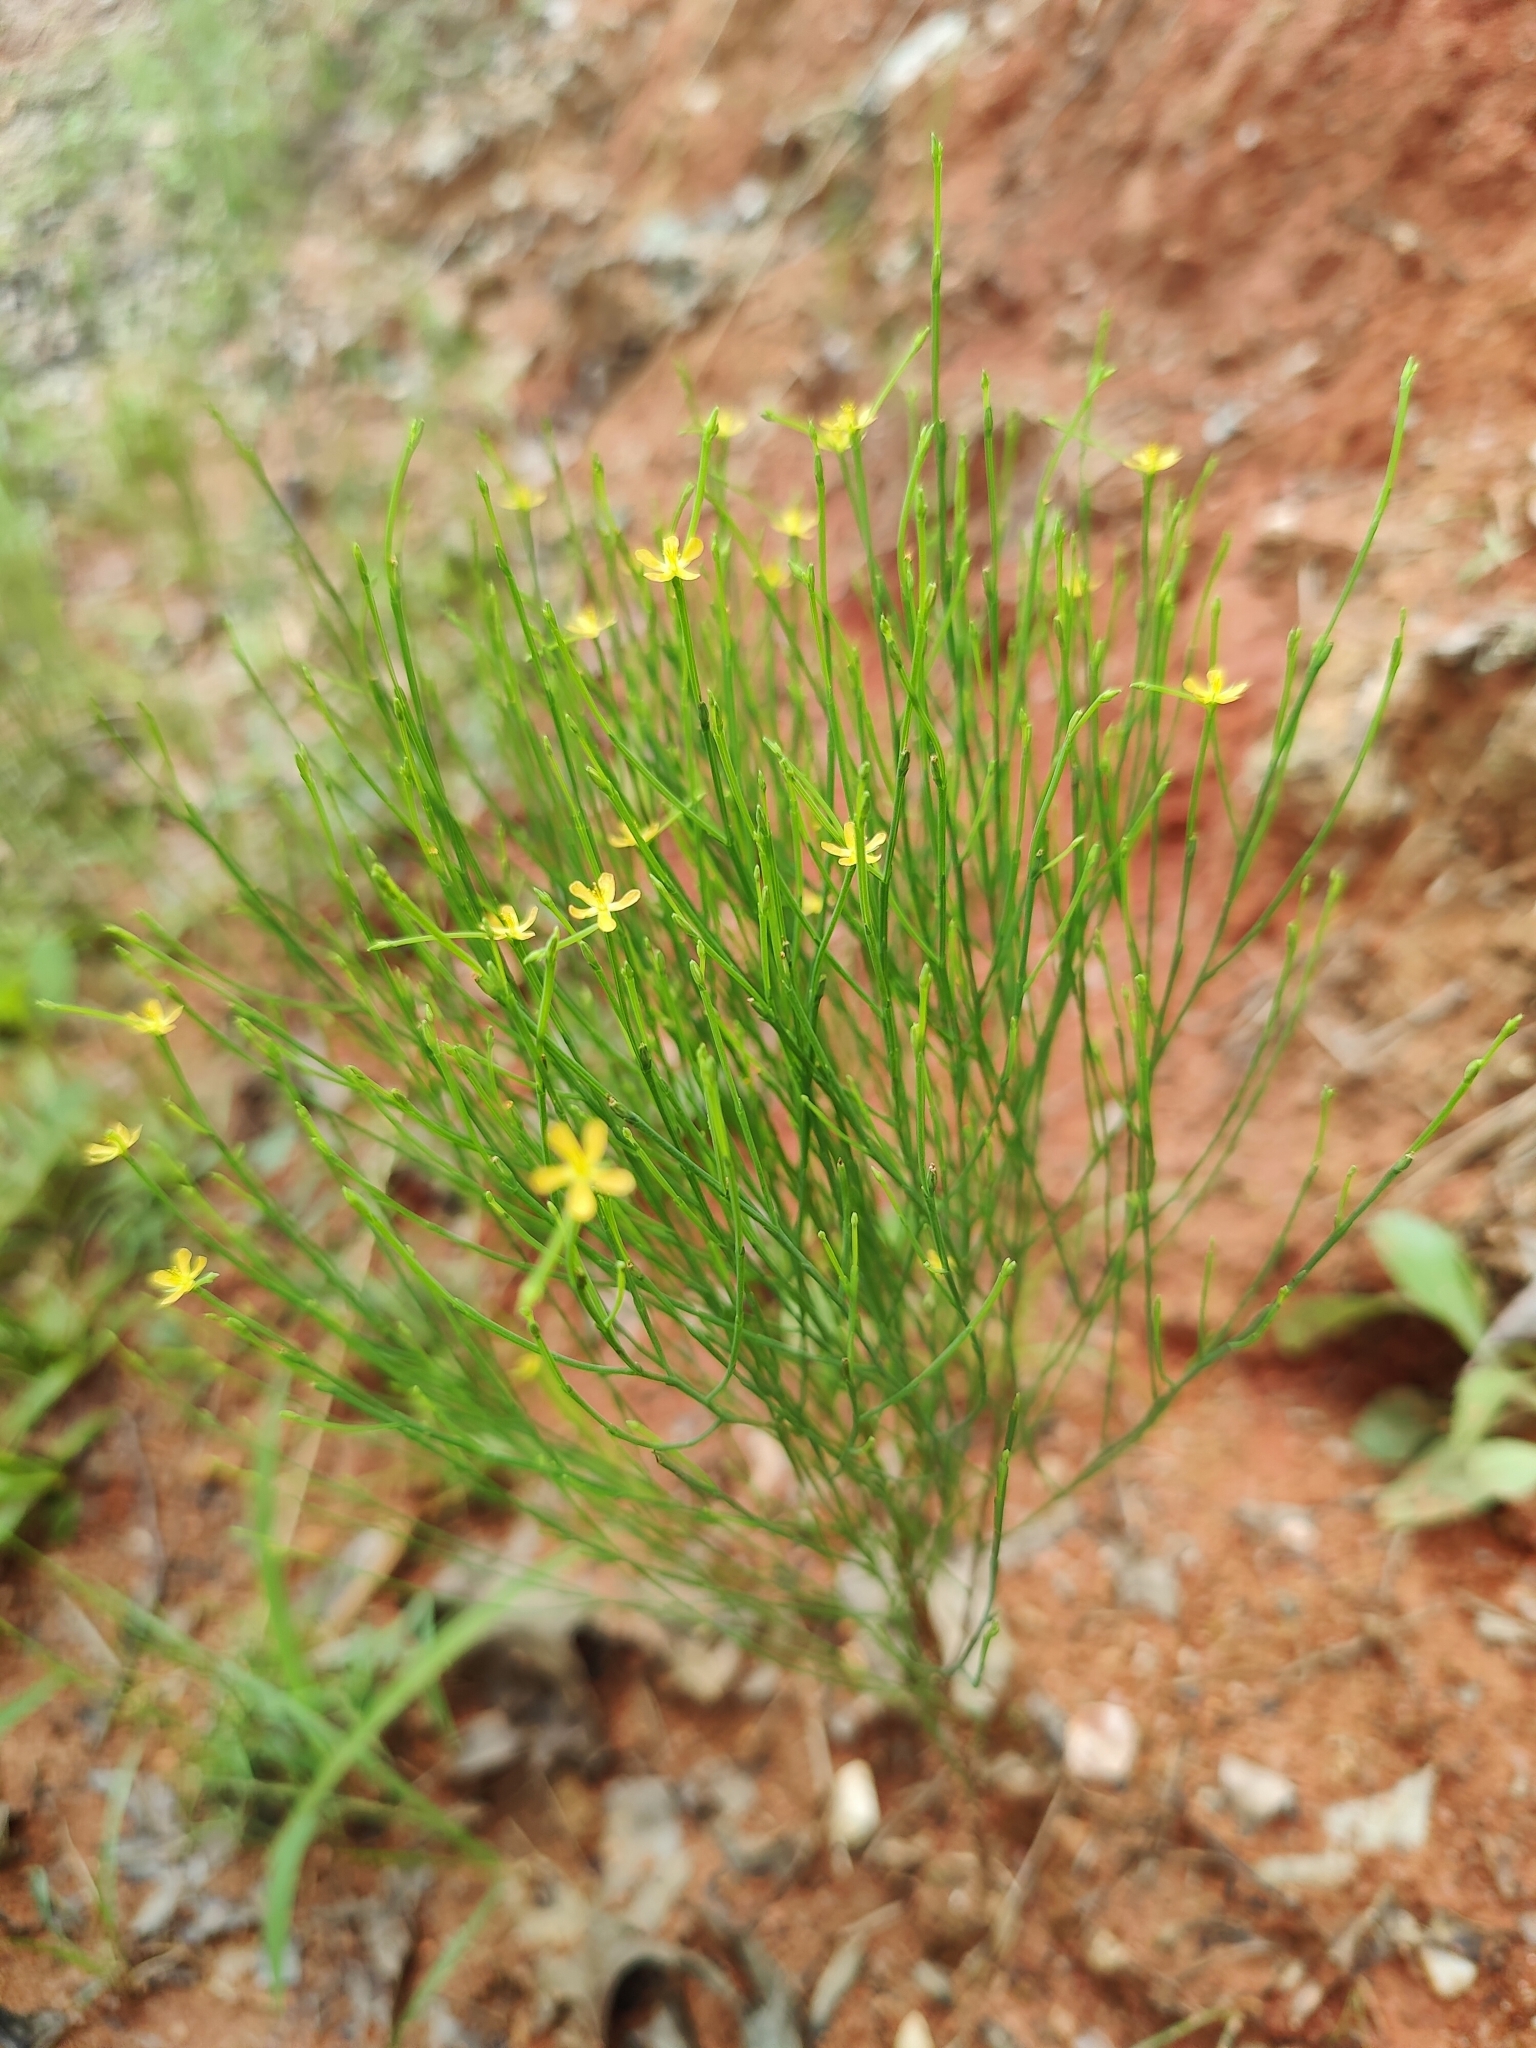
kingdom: Plantae
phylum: Tracheophyta
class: Magnoliopsida
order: Malpighiales
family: Hypericaceae
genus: Hypericum
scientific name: Hypericum gentianoides
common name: Gentian-leaved st. john's-wort
